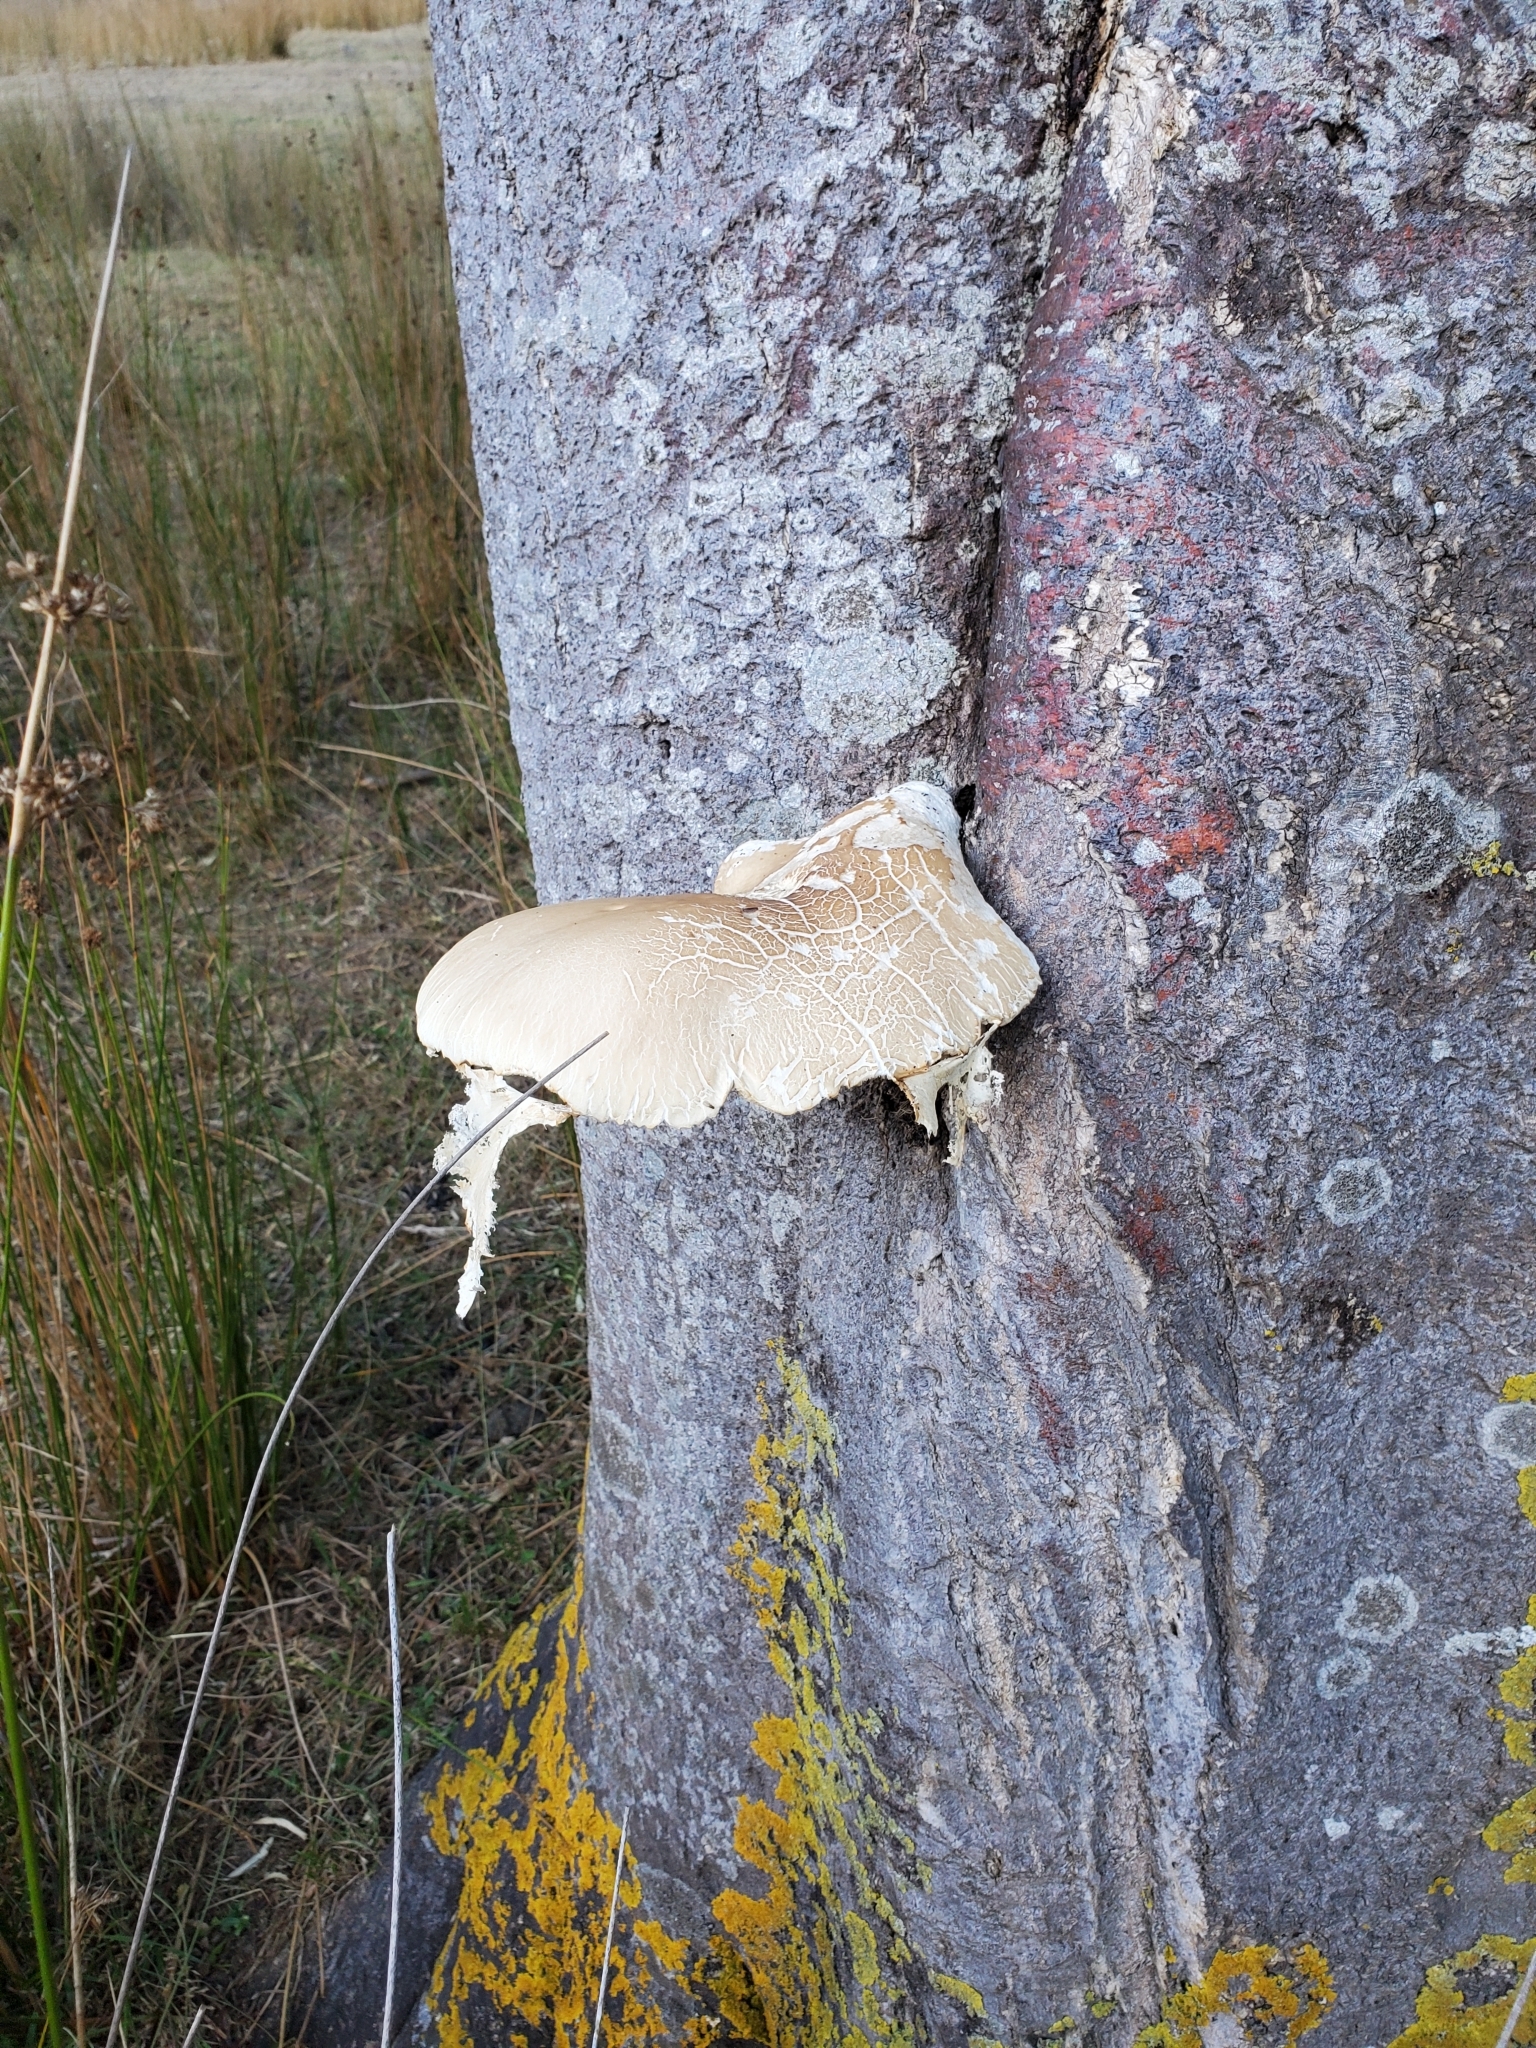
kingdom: Fungi
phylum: Basidiomycota
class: Agaricomycetes
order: Agaricales
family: Tubariaceae
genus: Cyclocybe
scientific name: Cyclocybe parasitica
